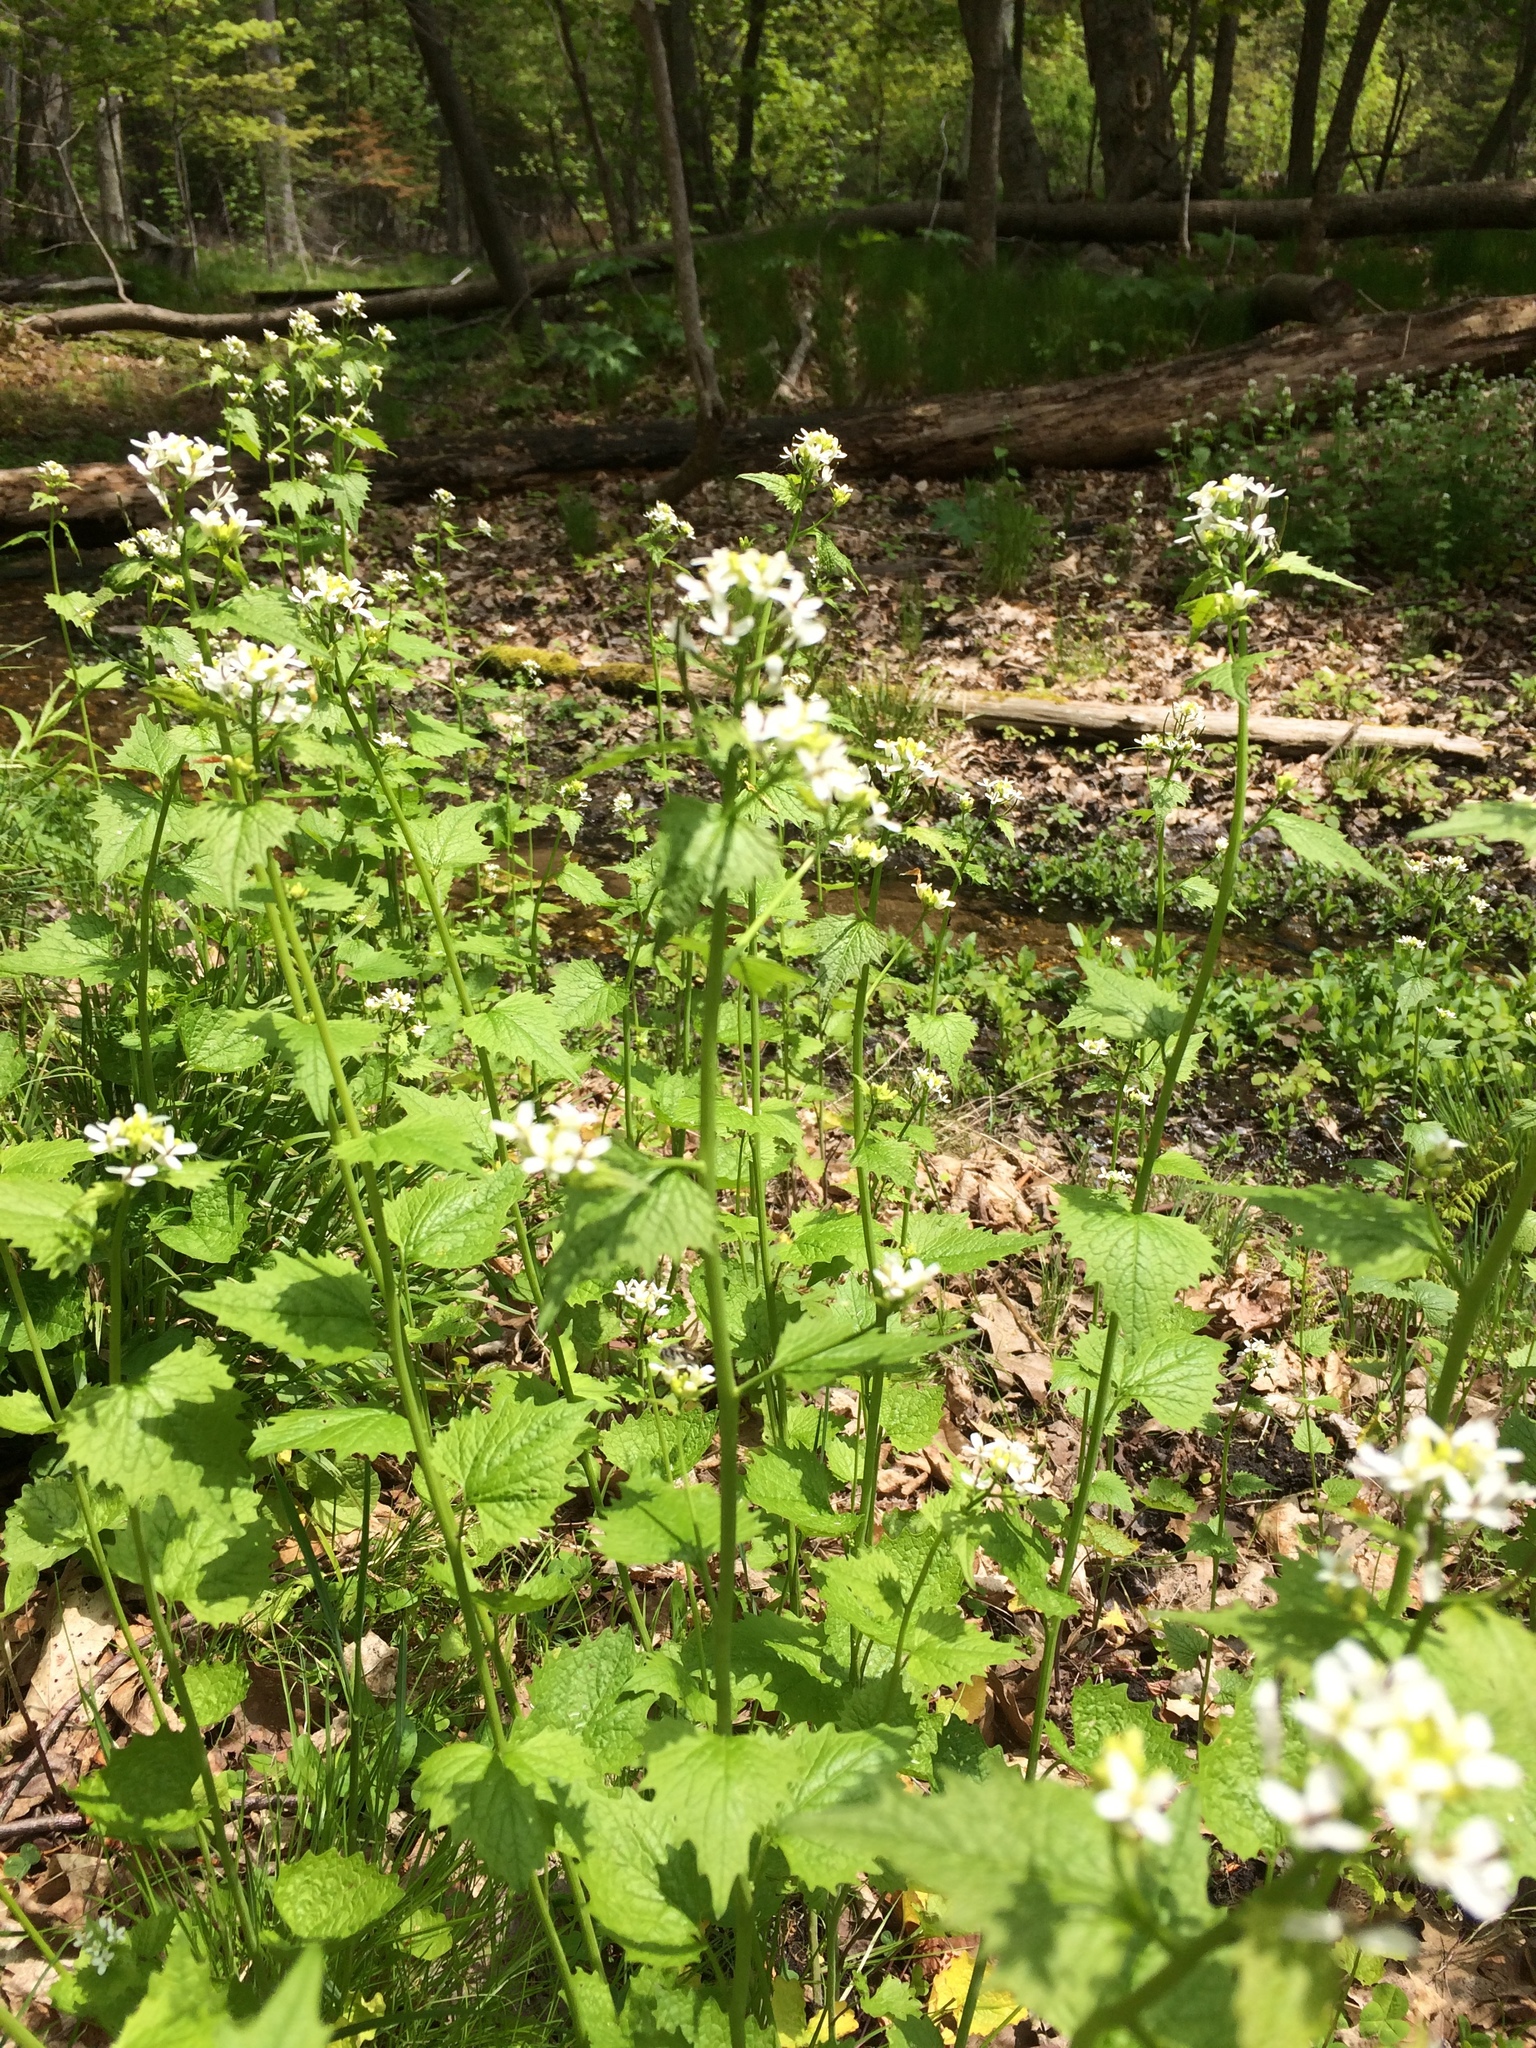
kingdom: Plantae
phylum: Tracheophyta
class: Magnoliopsida
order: Brassicales
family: Brassicaceae
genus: Alliaria
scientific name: Alliaria petiolata
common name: Garlic mustard
